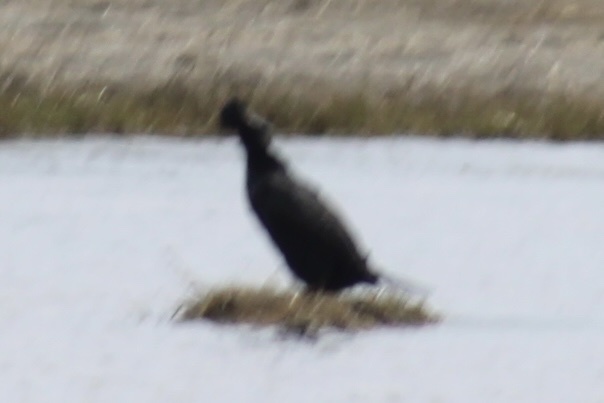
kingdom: Animalia
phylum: Chordata
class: Aves
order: Suliformes
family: Phalacrocoracidae
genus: Phalacrocorax
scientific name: Phalacrocorax auritus
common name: Double-crested cormorant
